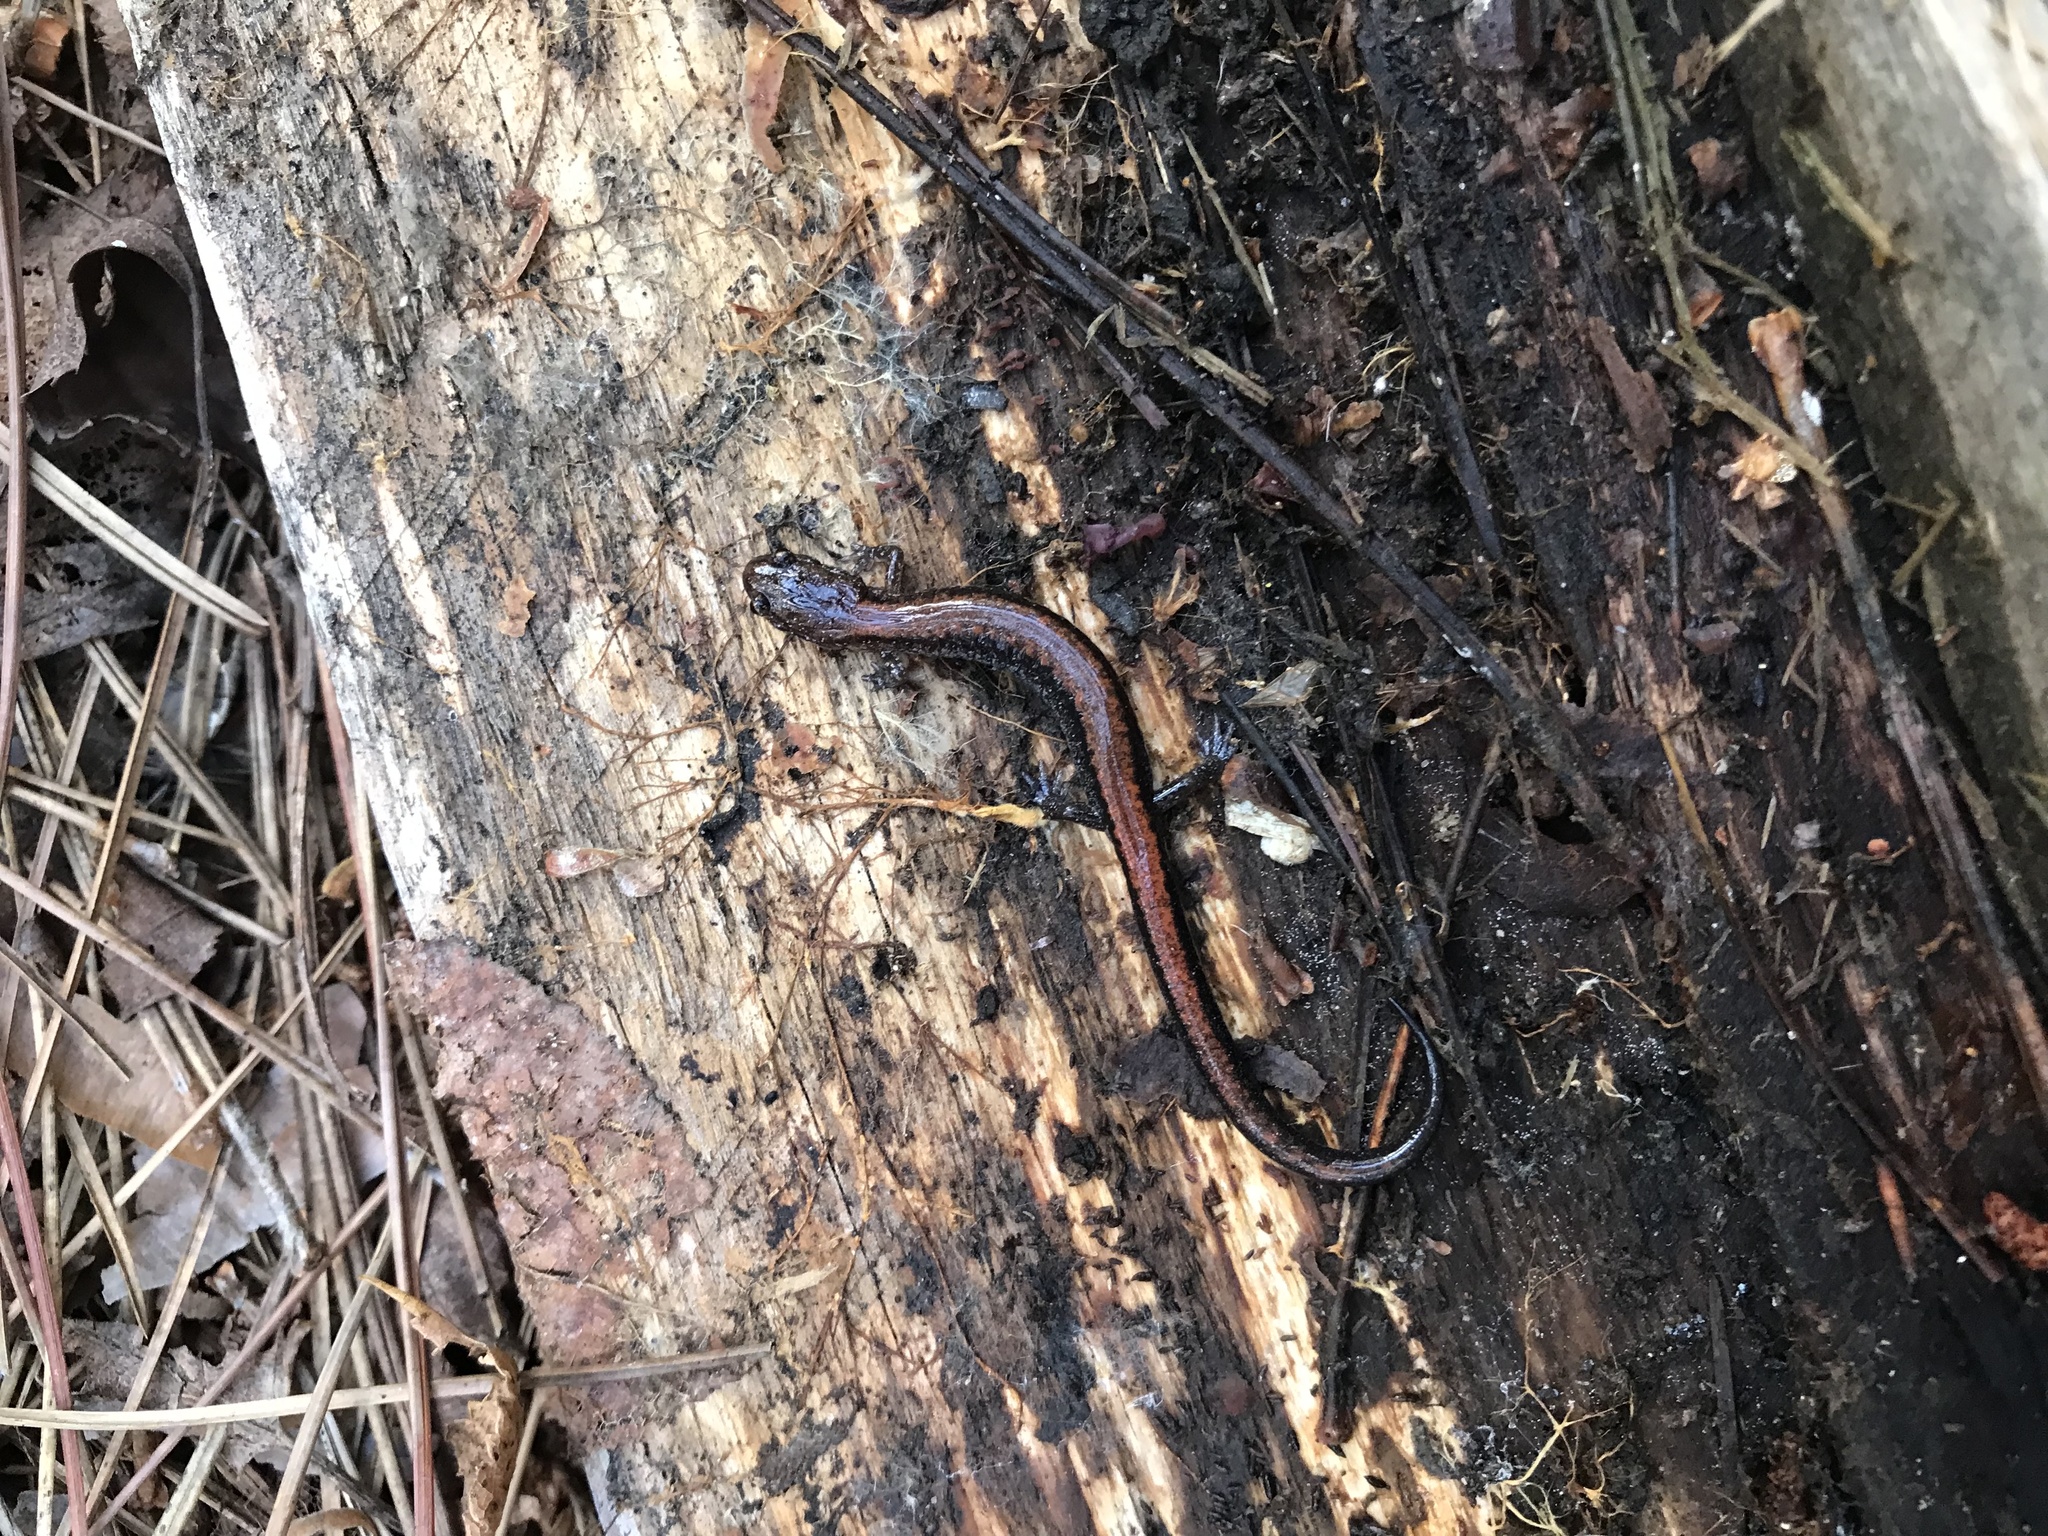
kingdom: Animalia
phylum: Chordata
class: Amphibia
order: Caudata
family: Plethodontidae
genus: Plethodon
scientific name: Plethodon cinereus
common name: Redback salamander
